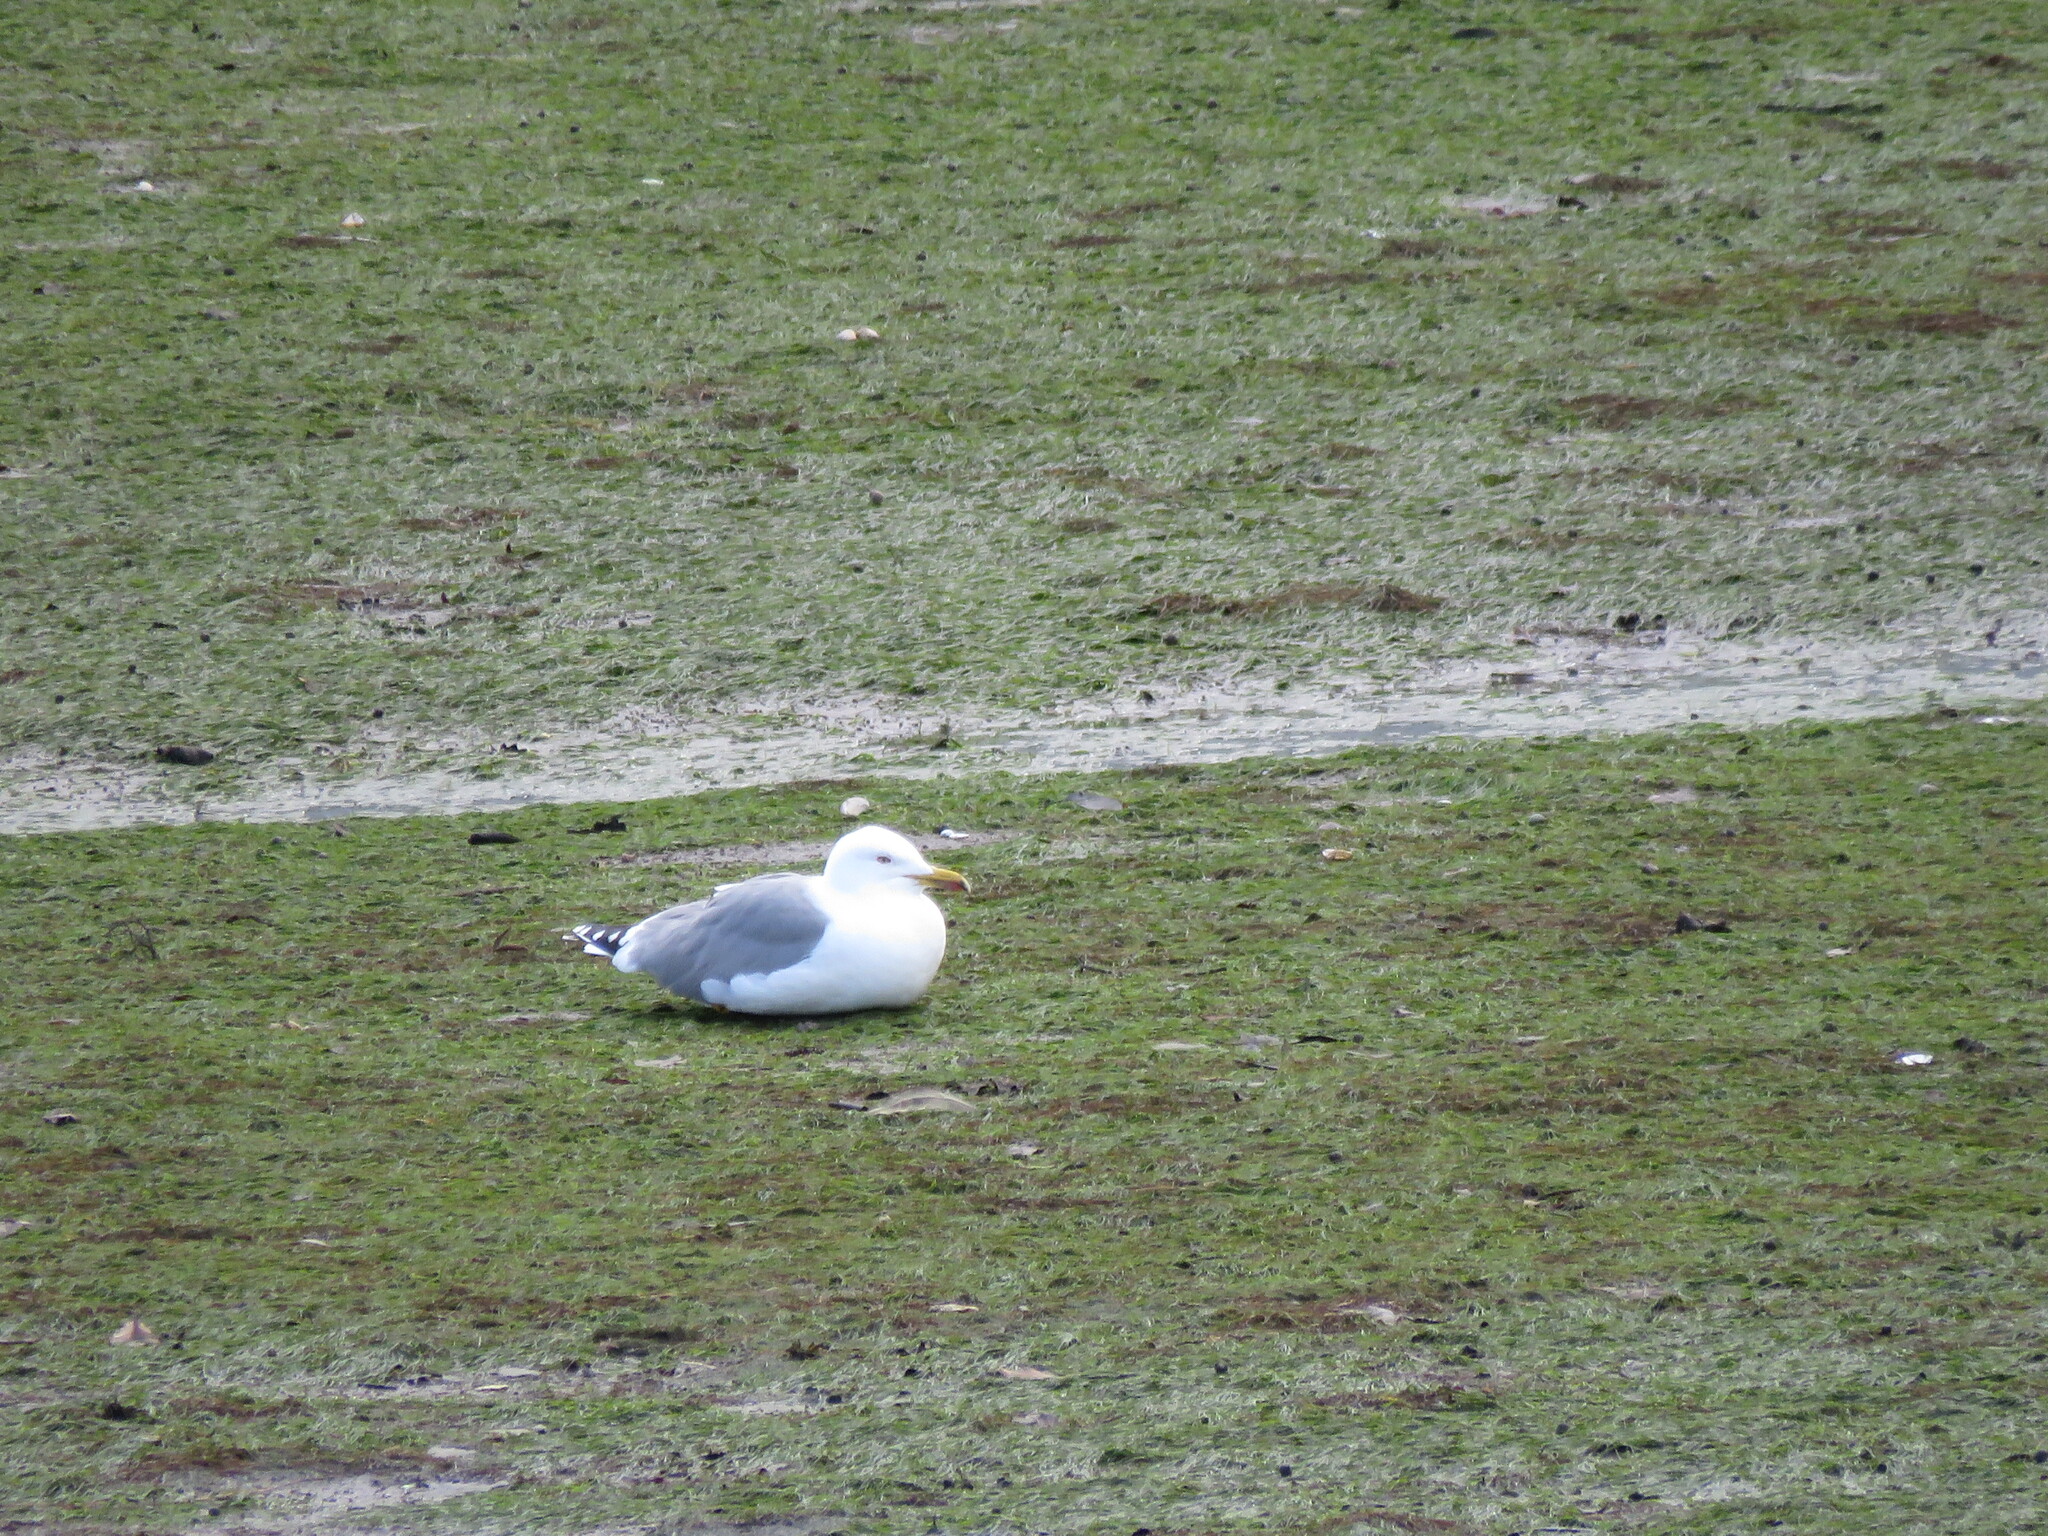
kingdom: Animalia
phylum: Chordata
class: Aves
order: Charadriiformes
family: Laridae
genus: Larus
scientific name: Larus michahellis
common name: Yellow-legged gull
